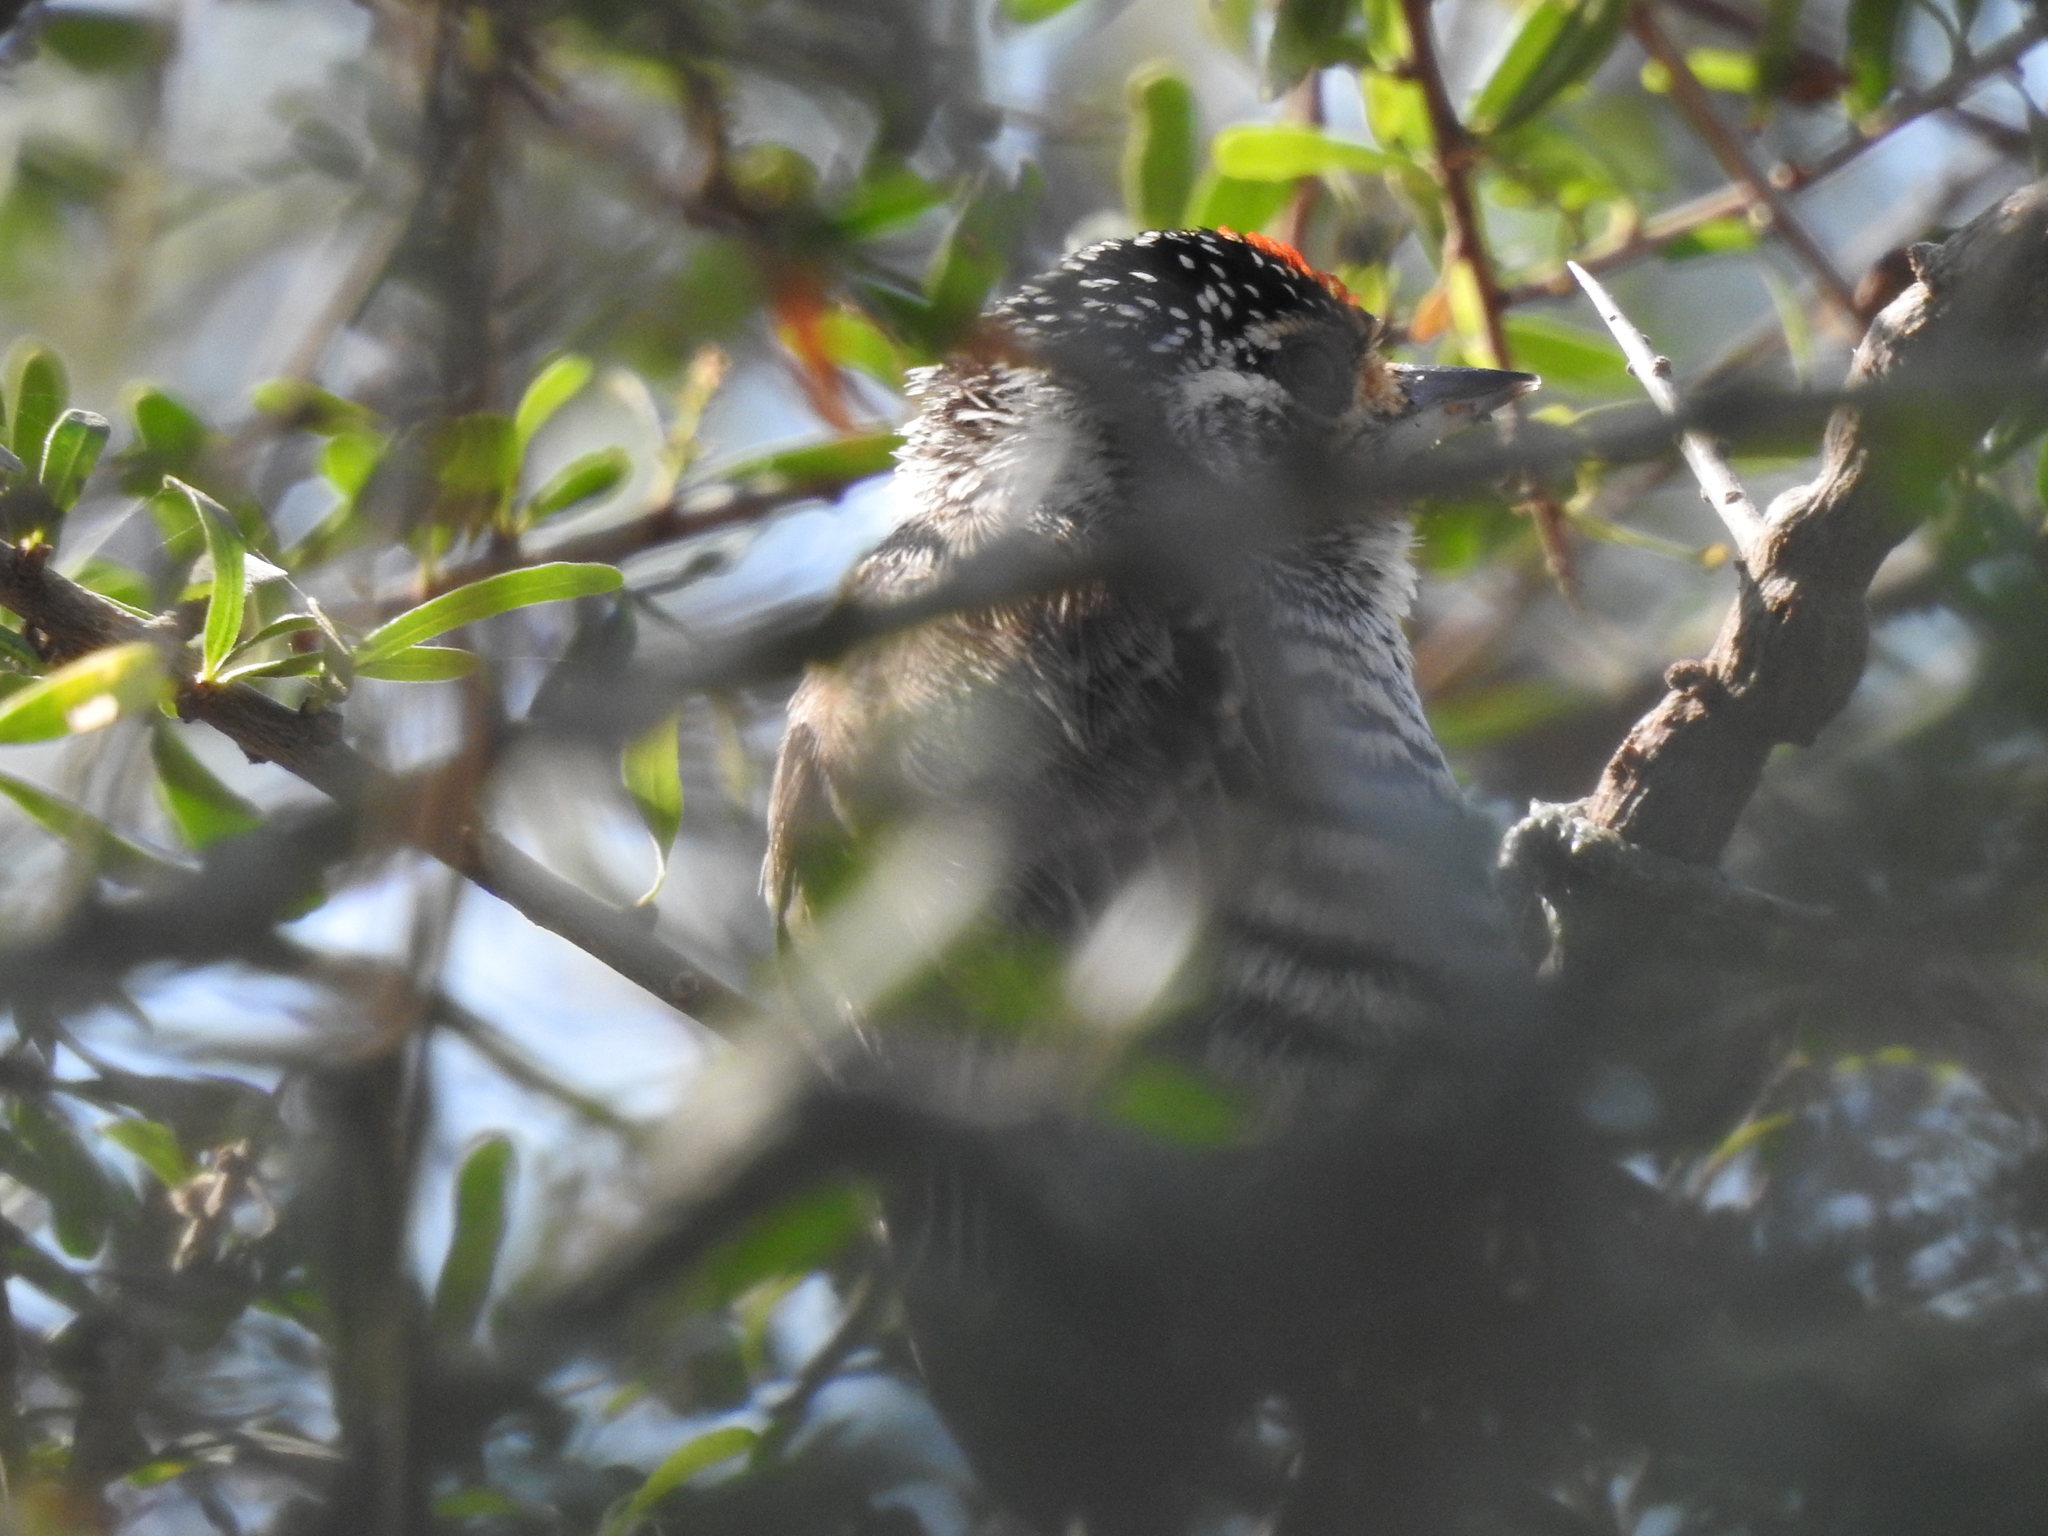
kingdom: Animalia
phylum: Chordata
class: Aves
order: Piciformes
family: Picidae
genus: Picumnus
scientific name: Picumnus cirratus
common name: White-barred piculet
